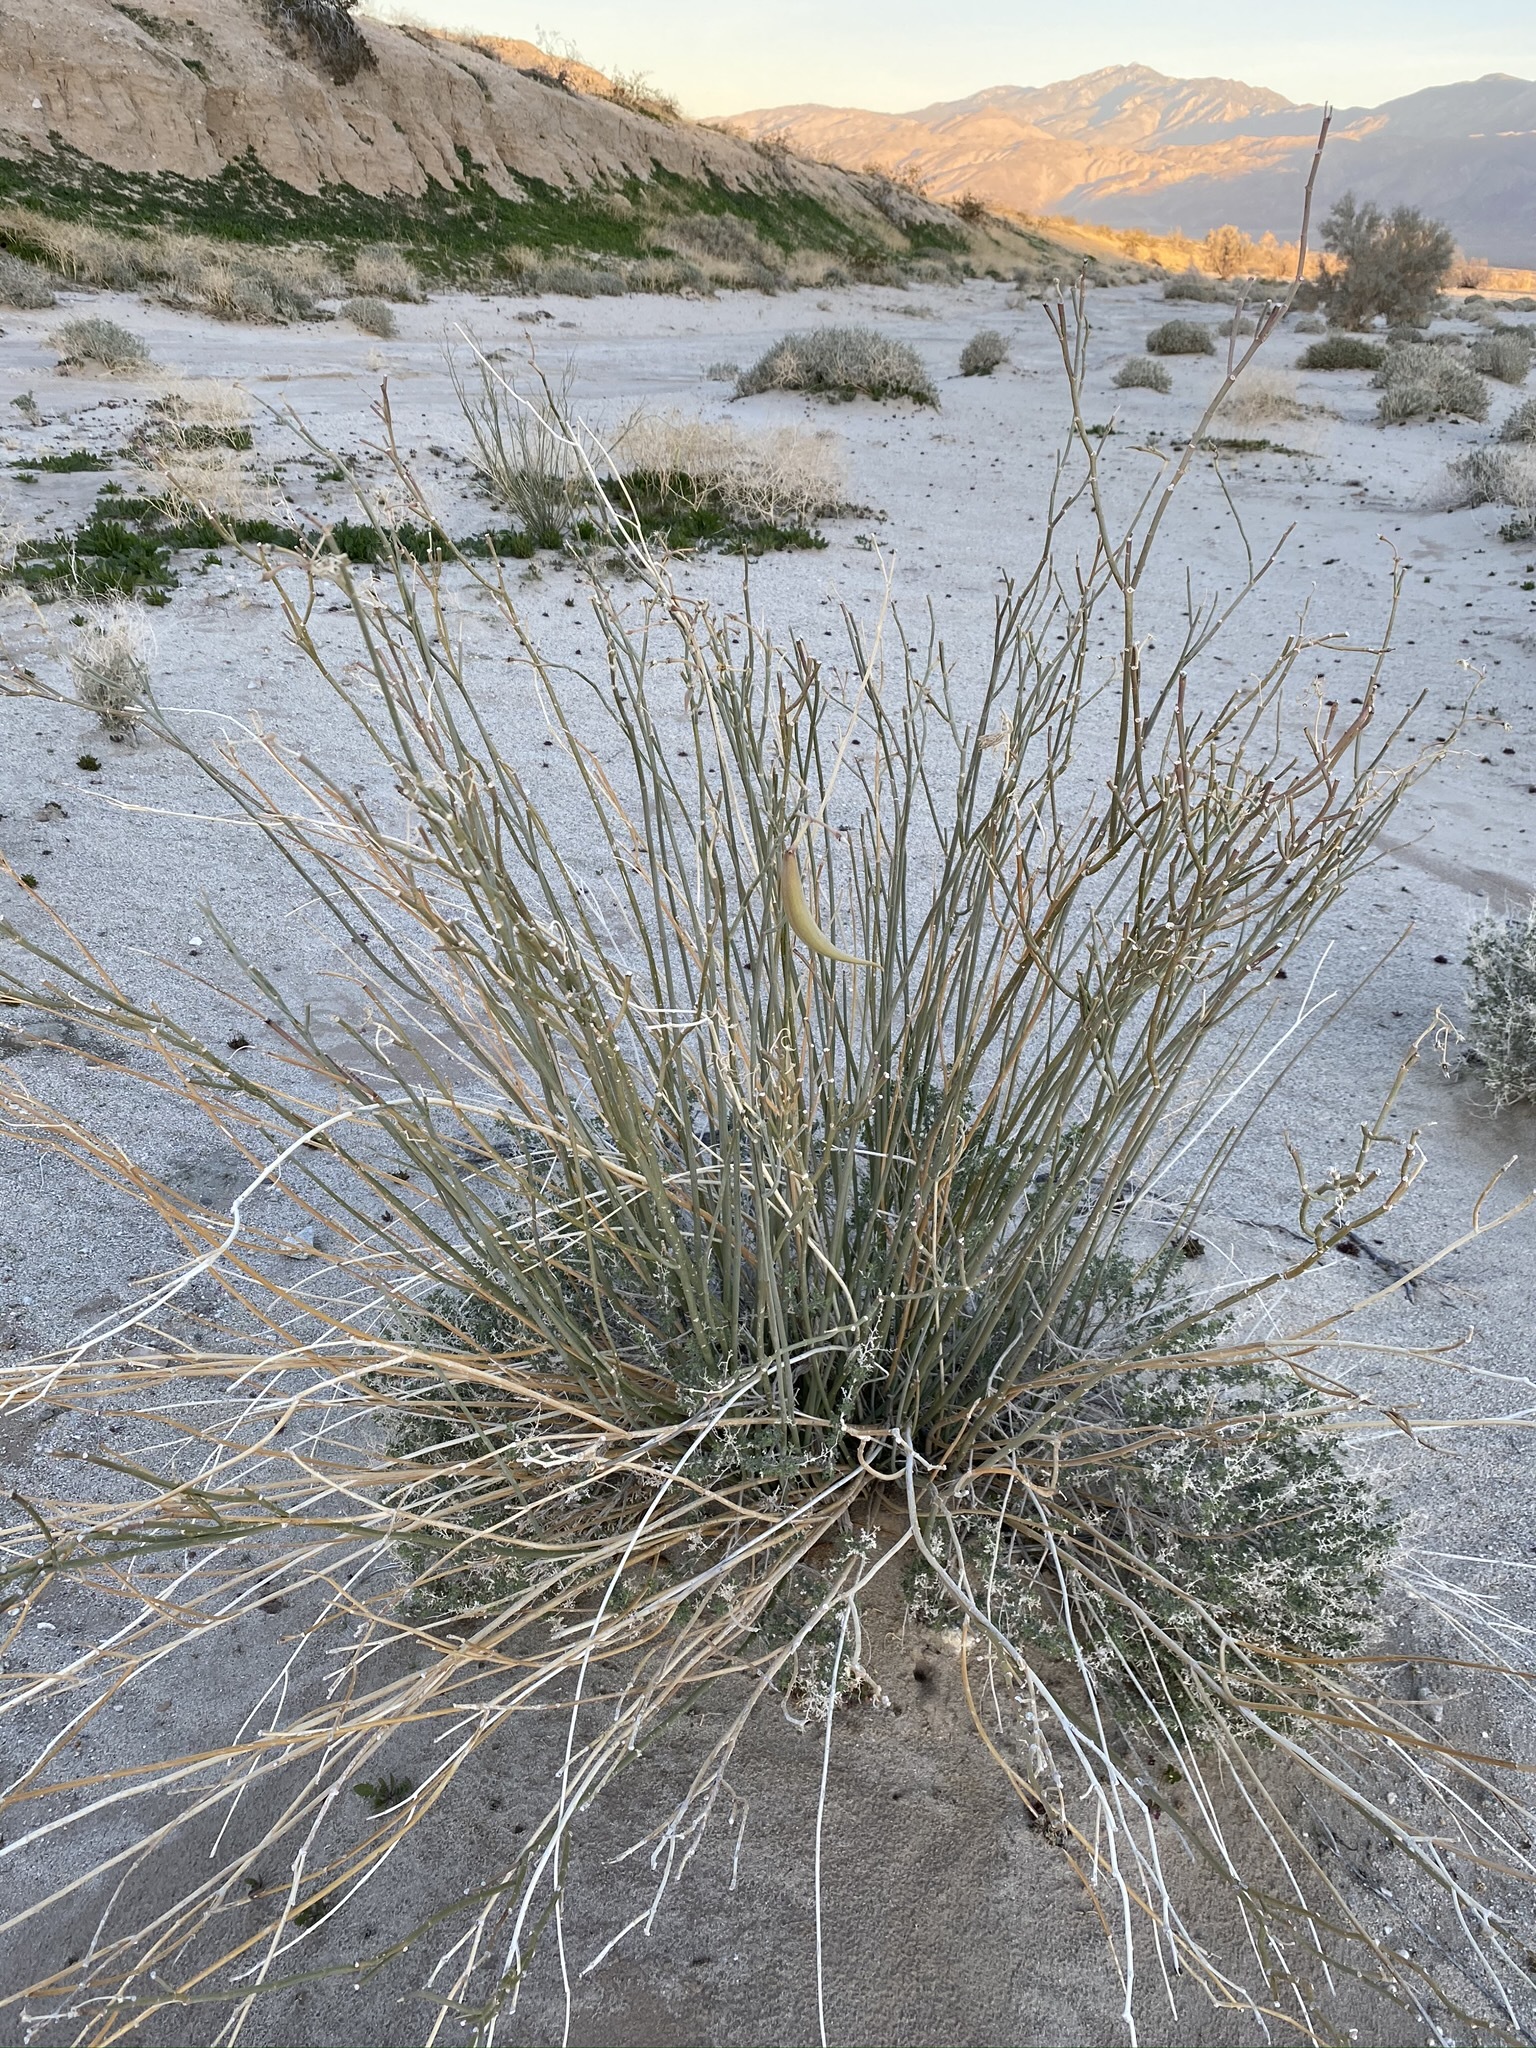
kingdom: Plantae
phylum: Tracheophyta
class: Magnoliopsida
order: Gentianales
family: Apocynaceae
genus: Asclepias
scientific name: Asclepias subulata
